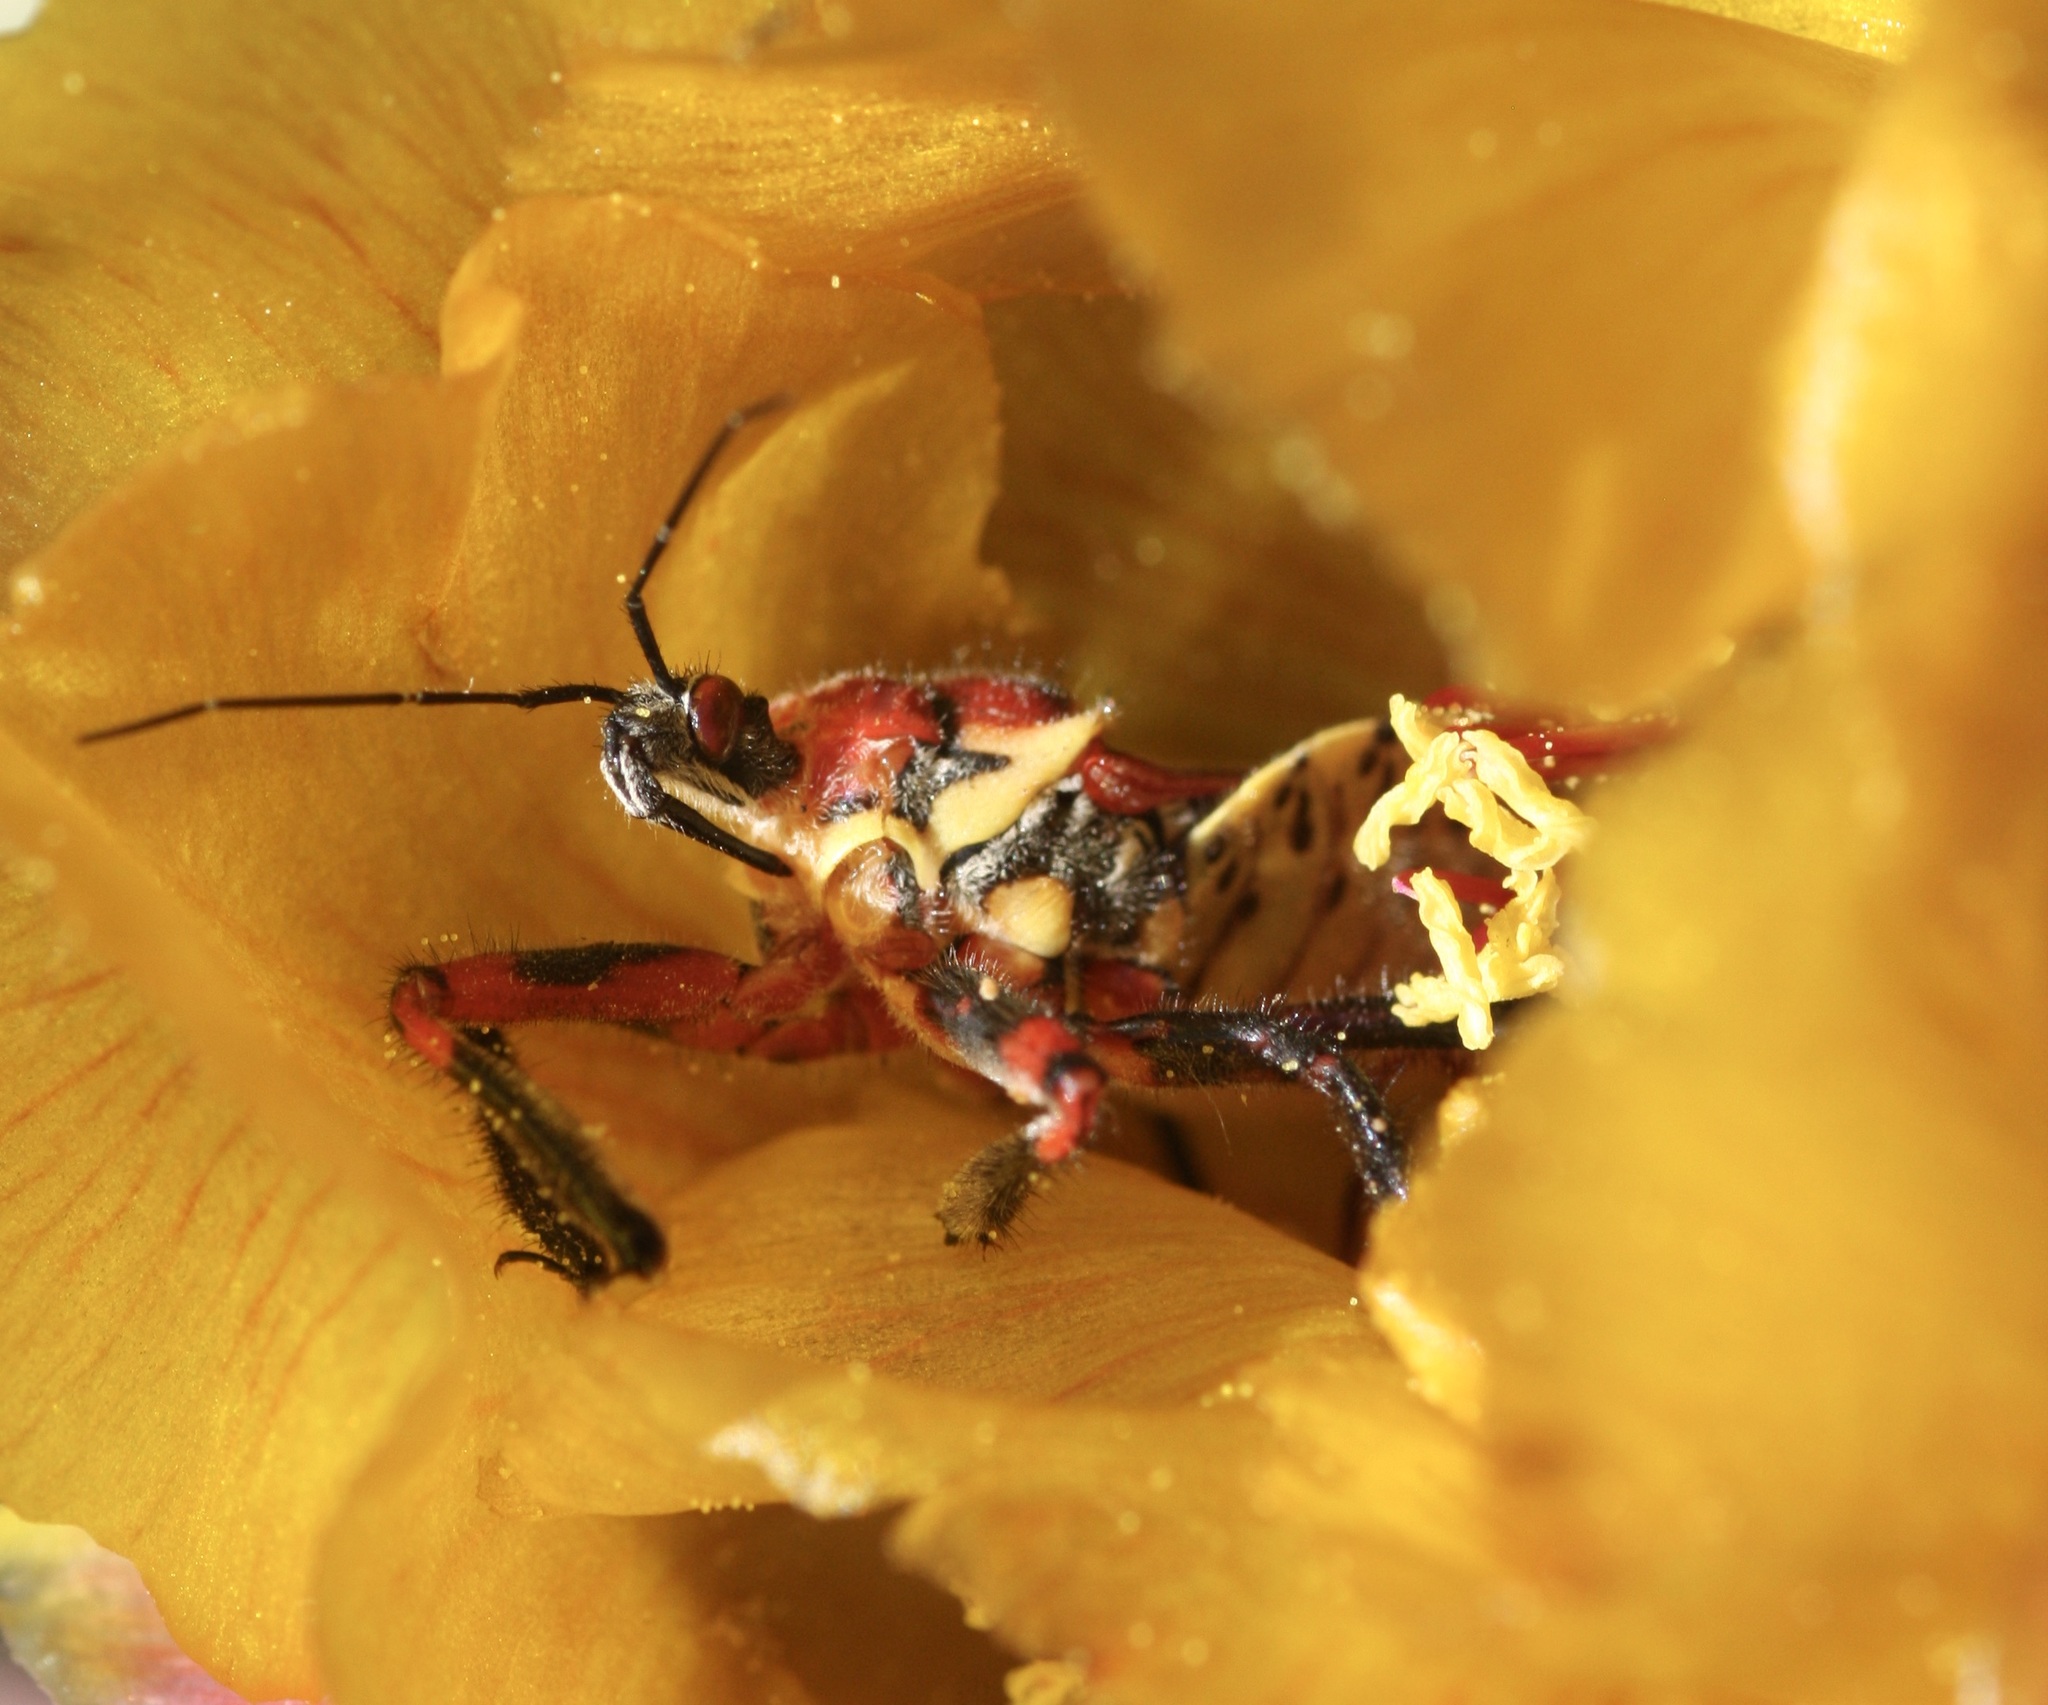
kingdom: Animalia
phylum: Arthropoda
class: Insecta
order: Hemiptera
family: Reduviidae
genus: Apiomerus
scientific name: Apiomerus flaviventris
